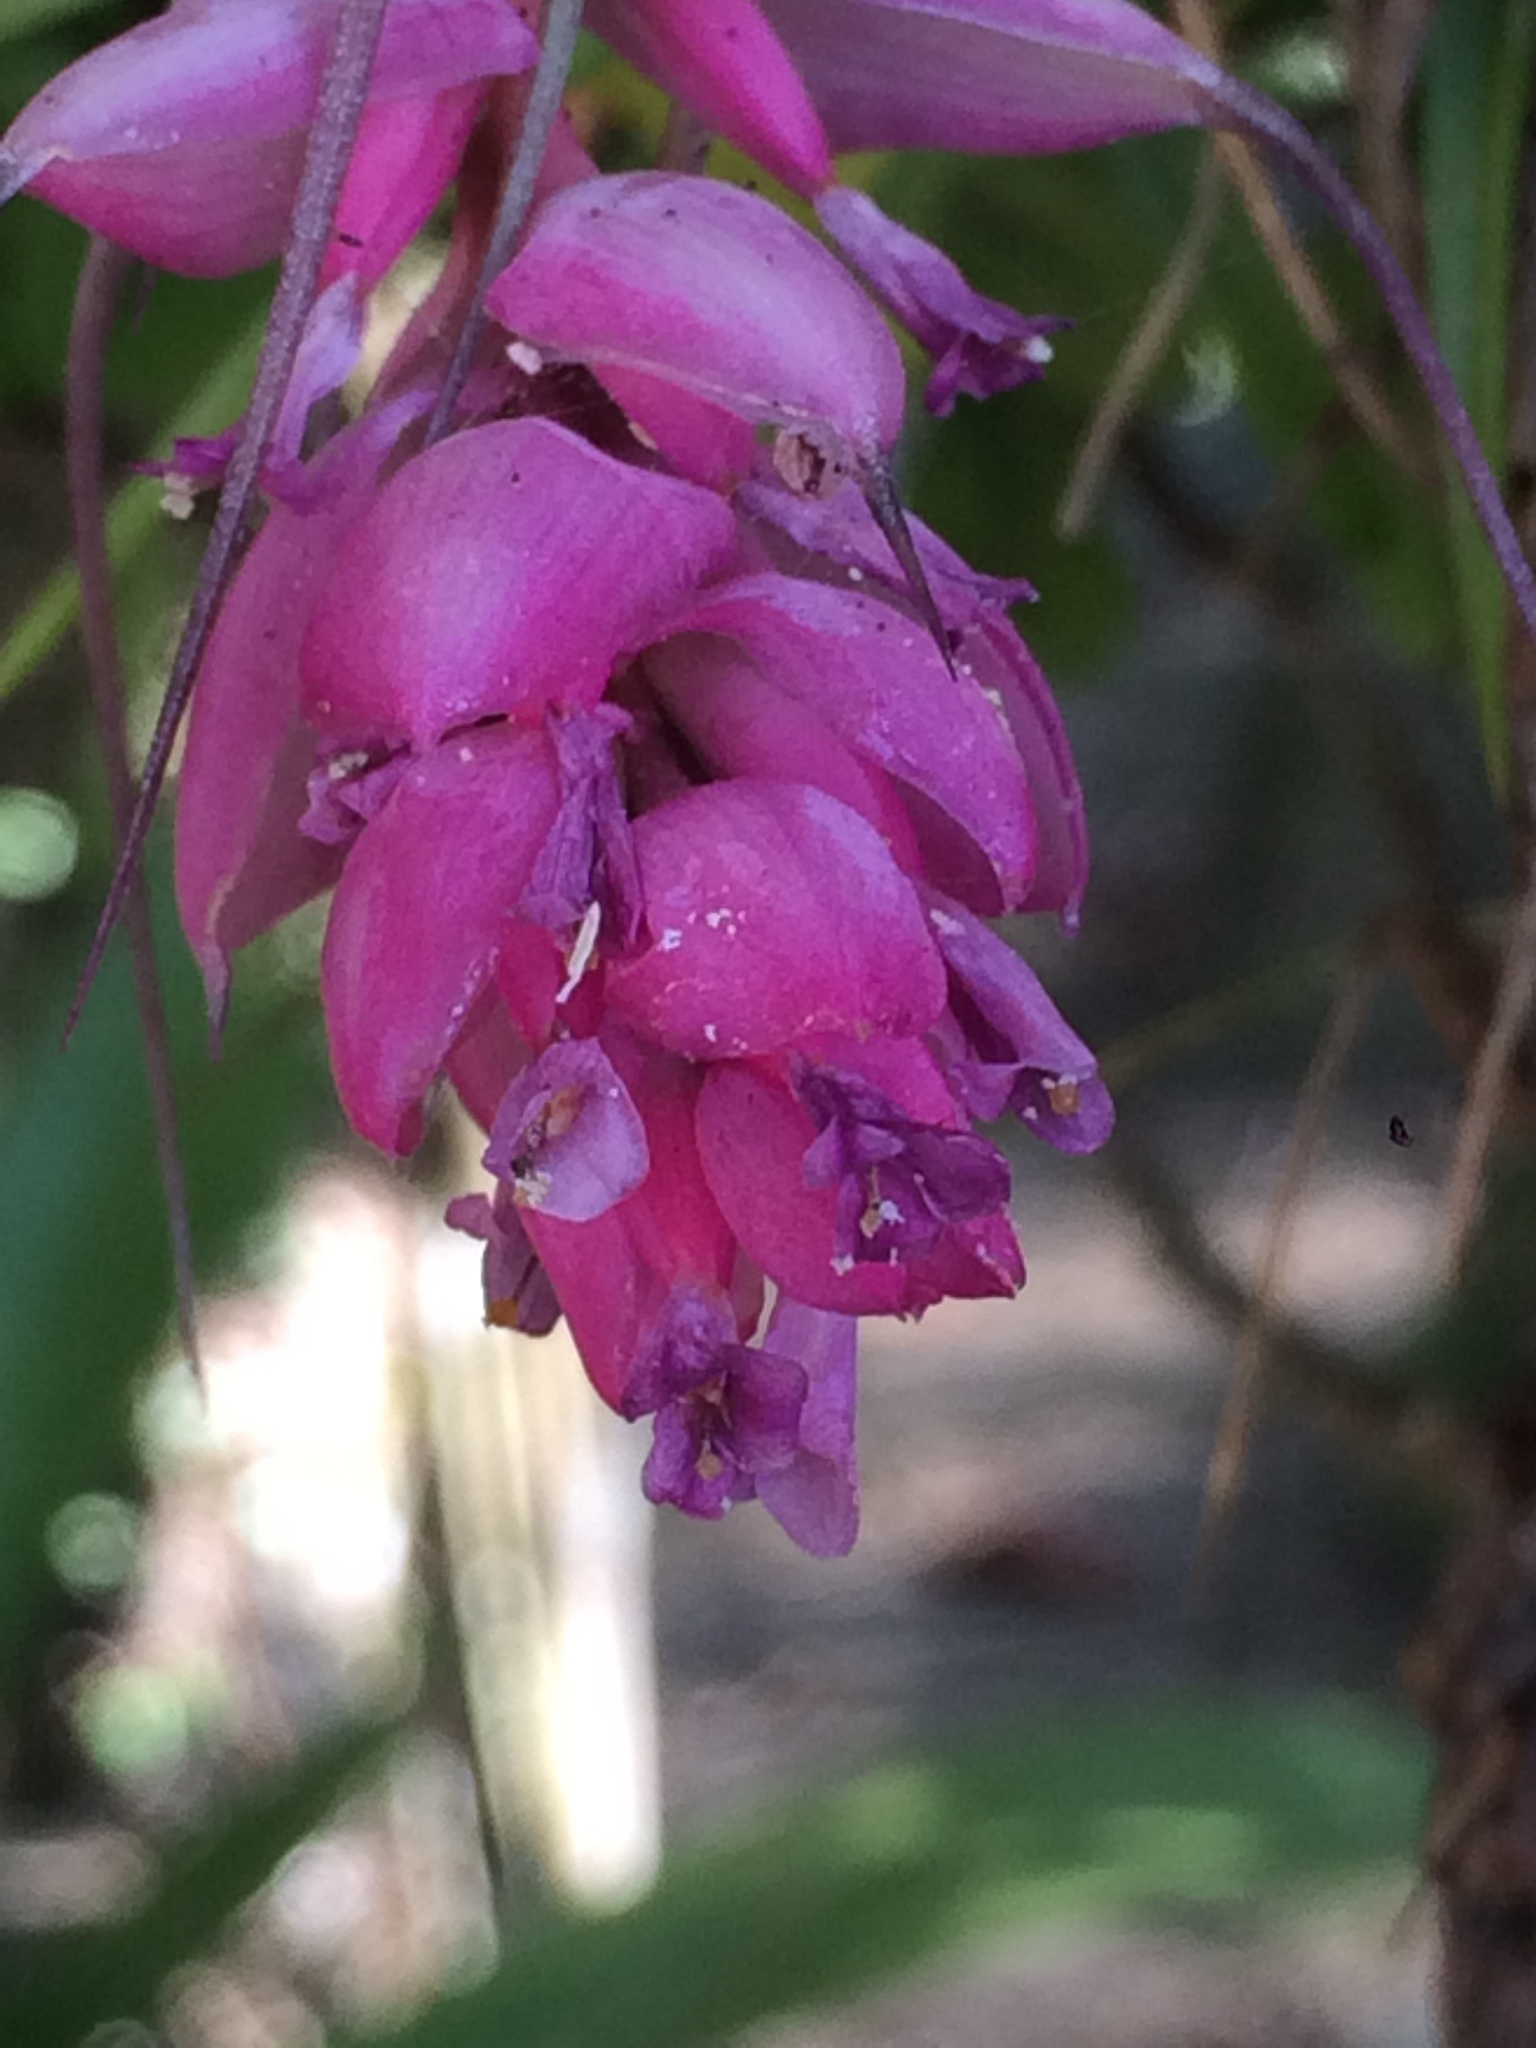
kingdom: Plantae
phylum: Tracheophyta
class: Liliopsida
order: Poales
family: Bromeliaceae
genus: Tillandsia
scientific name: Tillandsia stricta
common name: Airplant
